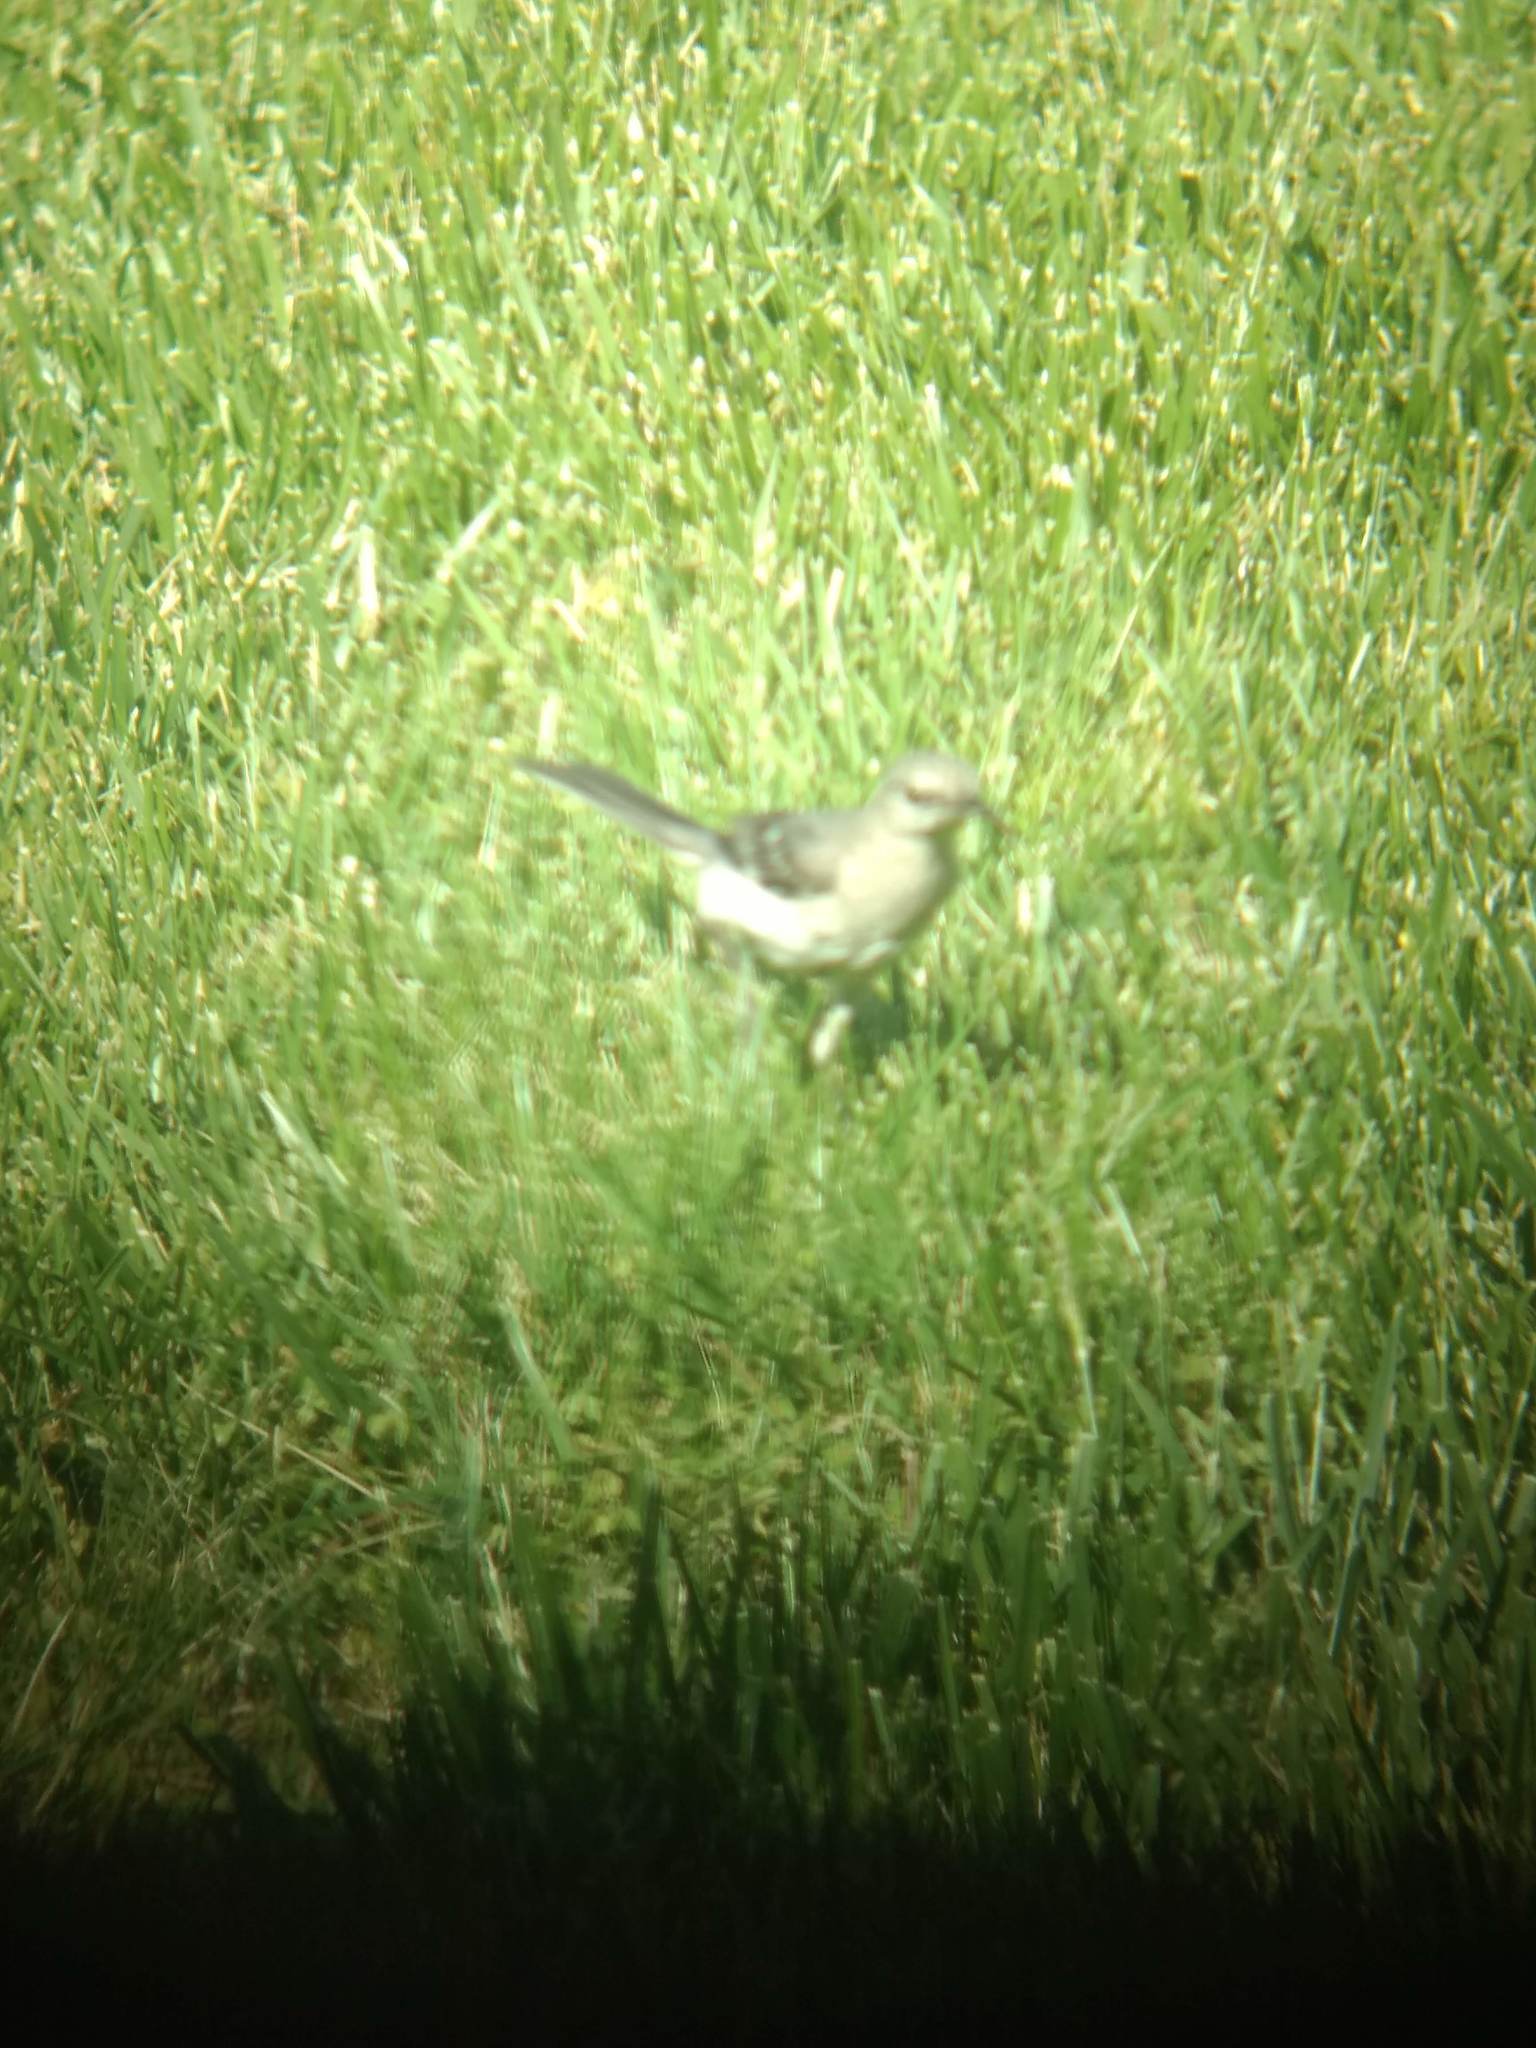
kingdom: Animalia
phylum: Chordata
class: Aves
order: Passeriformes
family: Mimidae
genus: Mimus
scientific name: Mimus polyglottos
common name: Northern mockingbird
